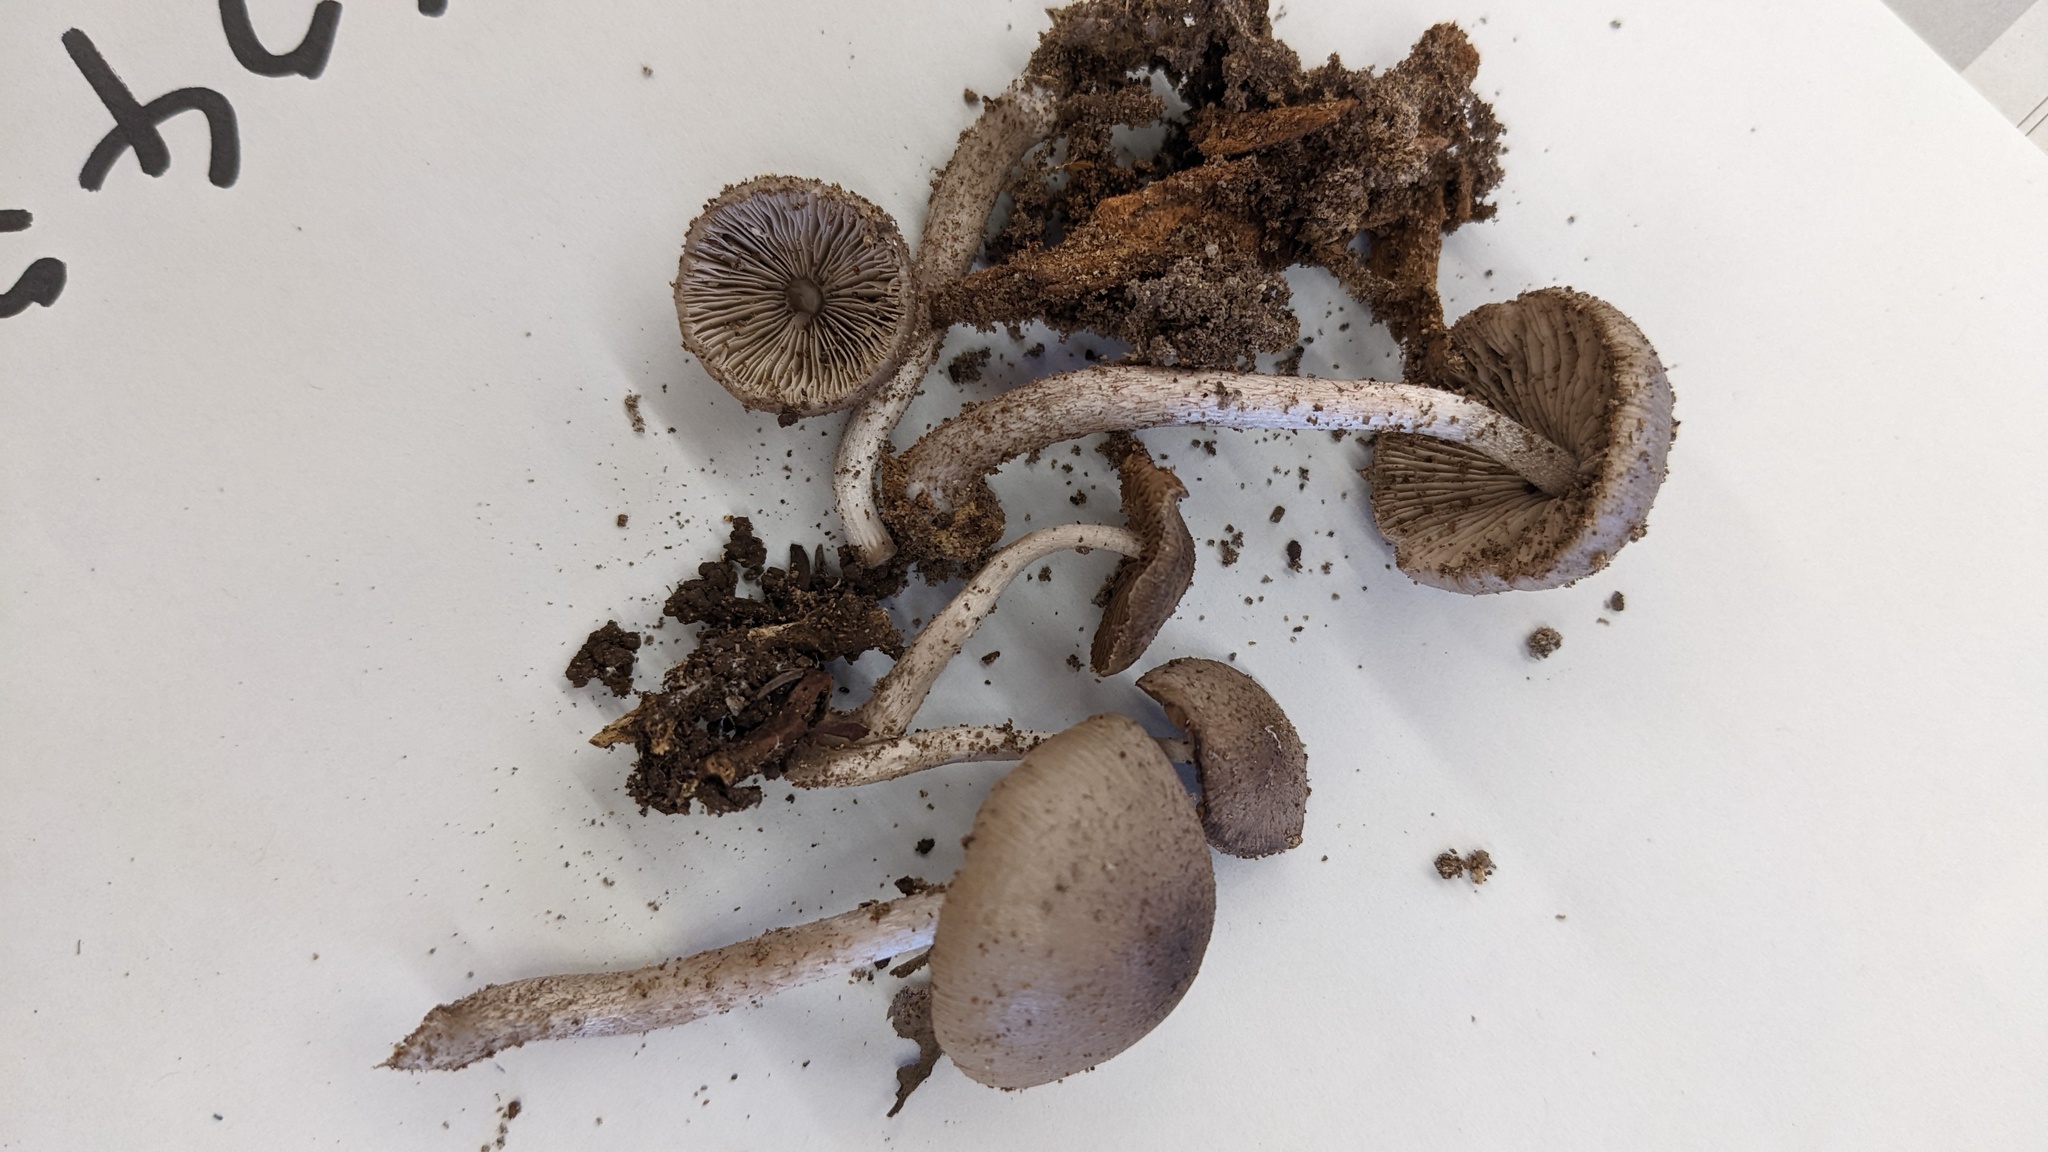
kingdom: Fungi
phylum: Basidiomycota
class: Agaricomycetes
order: Agaricales
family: Psathyrellaceae
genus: Coprinopsis
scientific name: Coprinopsis cineraria
